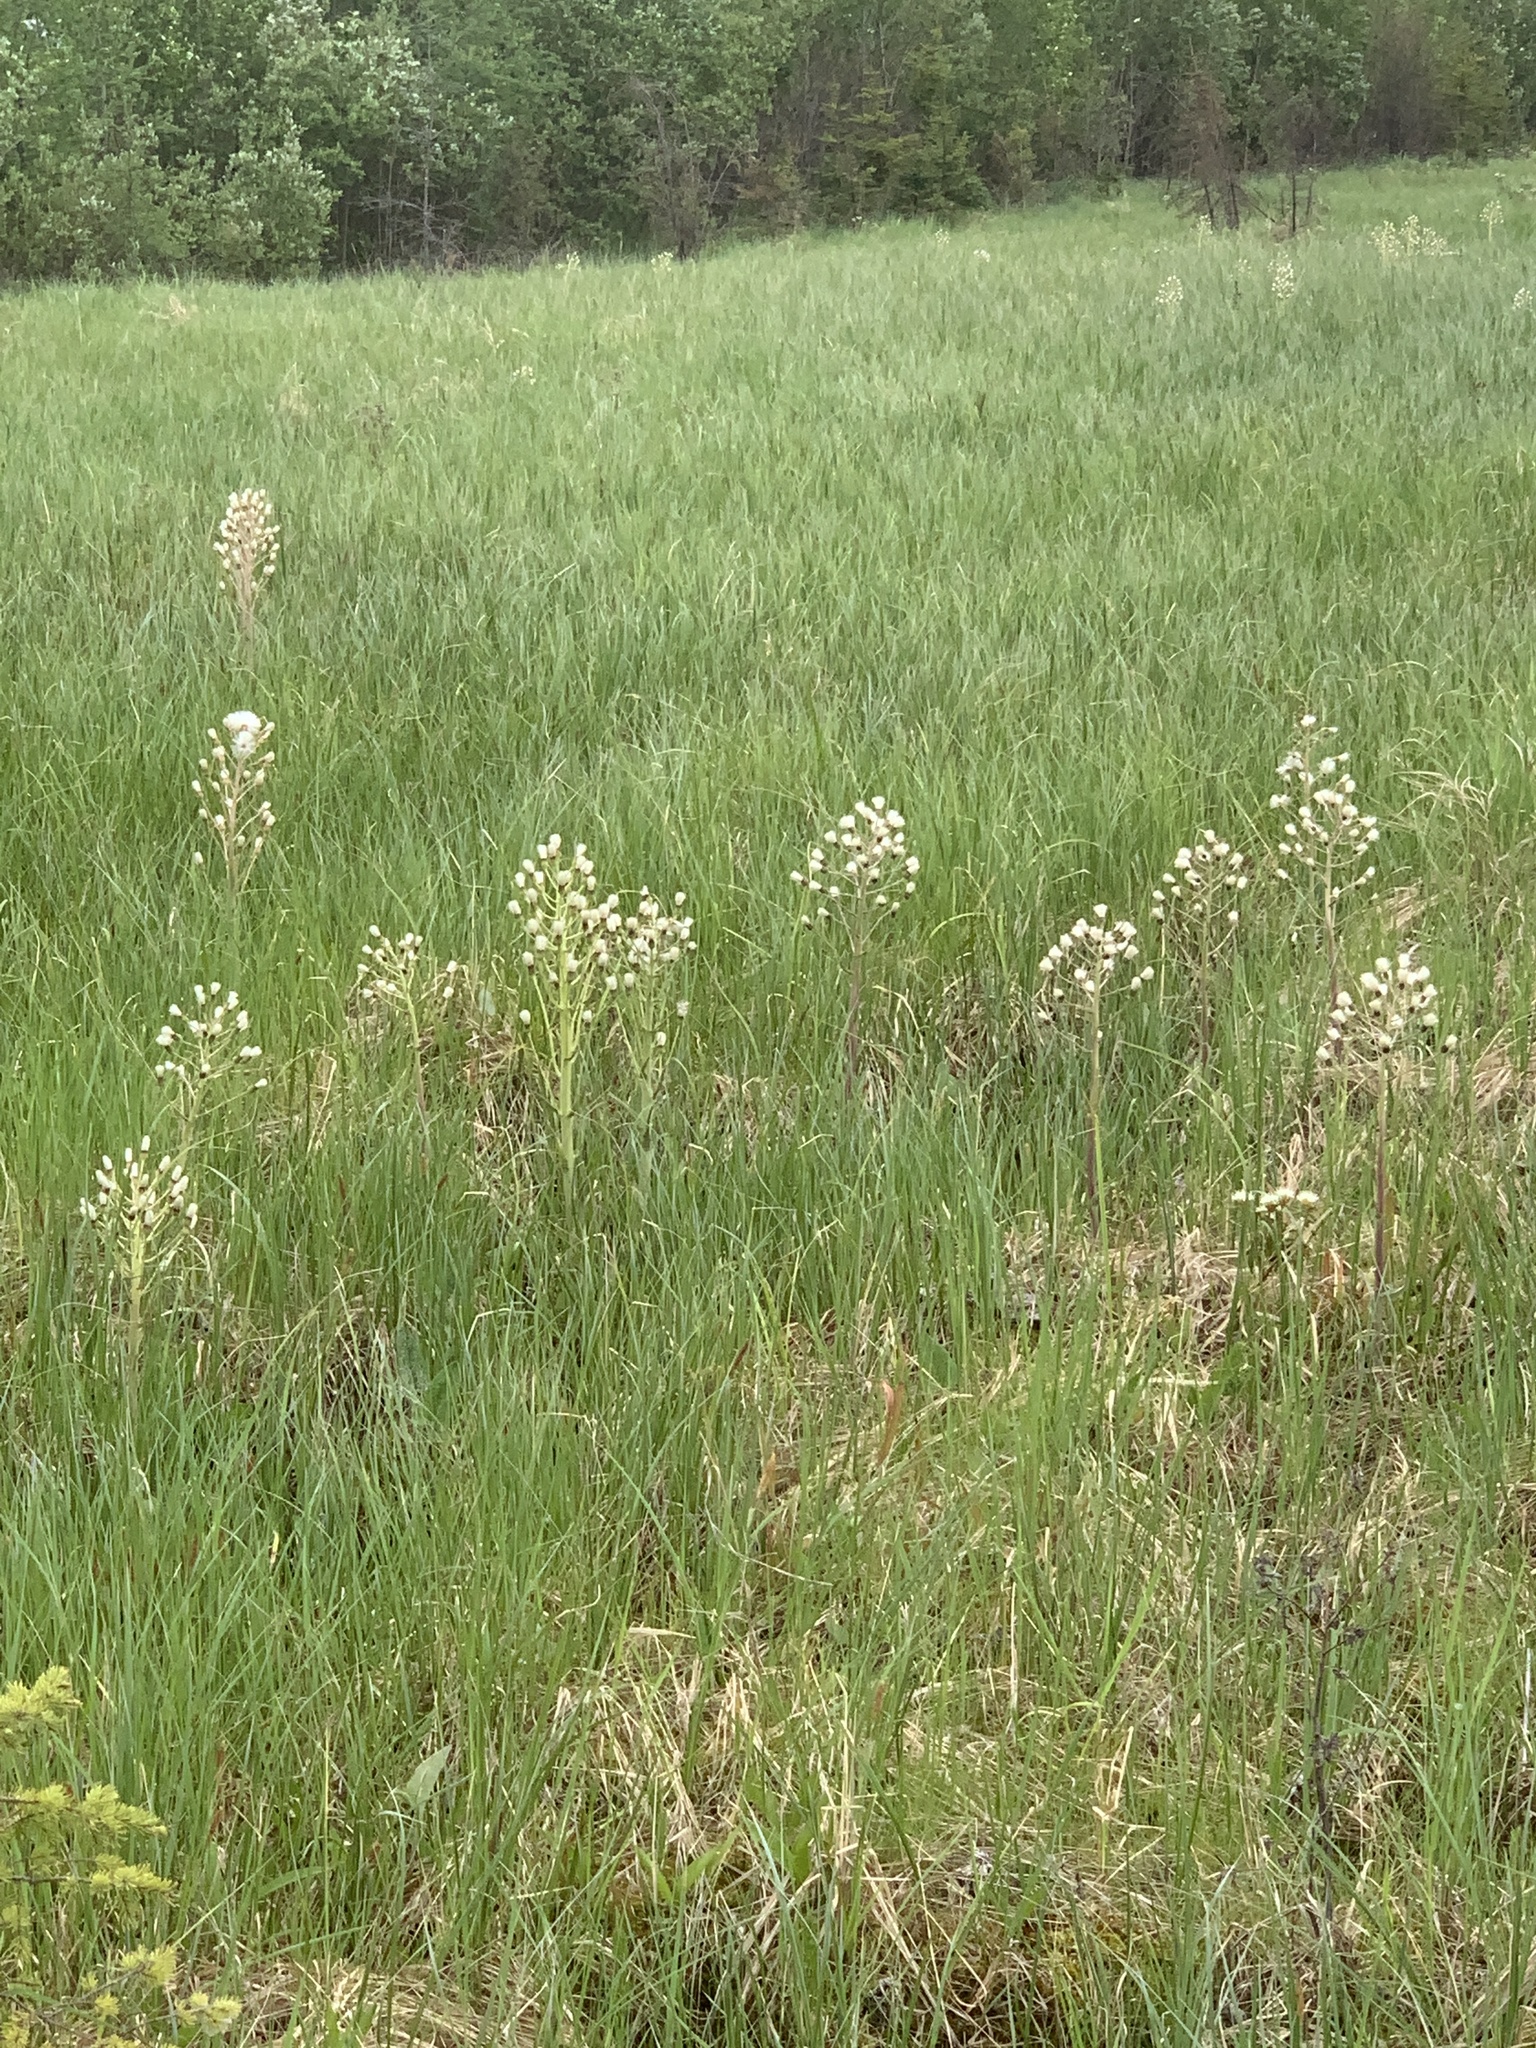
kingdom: Plantae
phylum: Tracheophyta
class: Magnoliopsida
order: Asterales
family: Asteraceae
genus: Petasites
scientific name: Petasites frigidus
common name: Arctic butterbur
